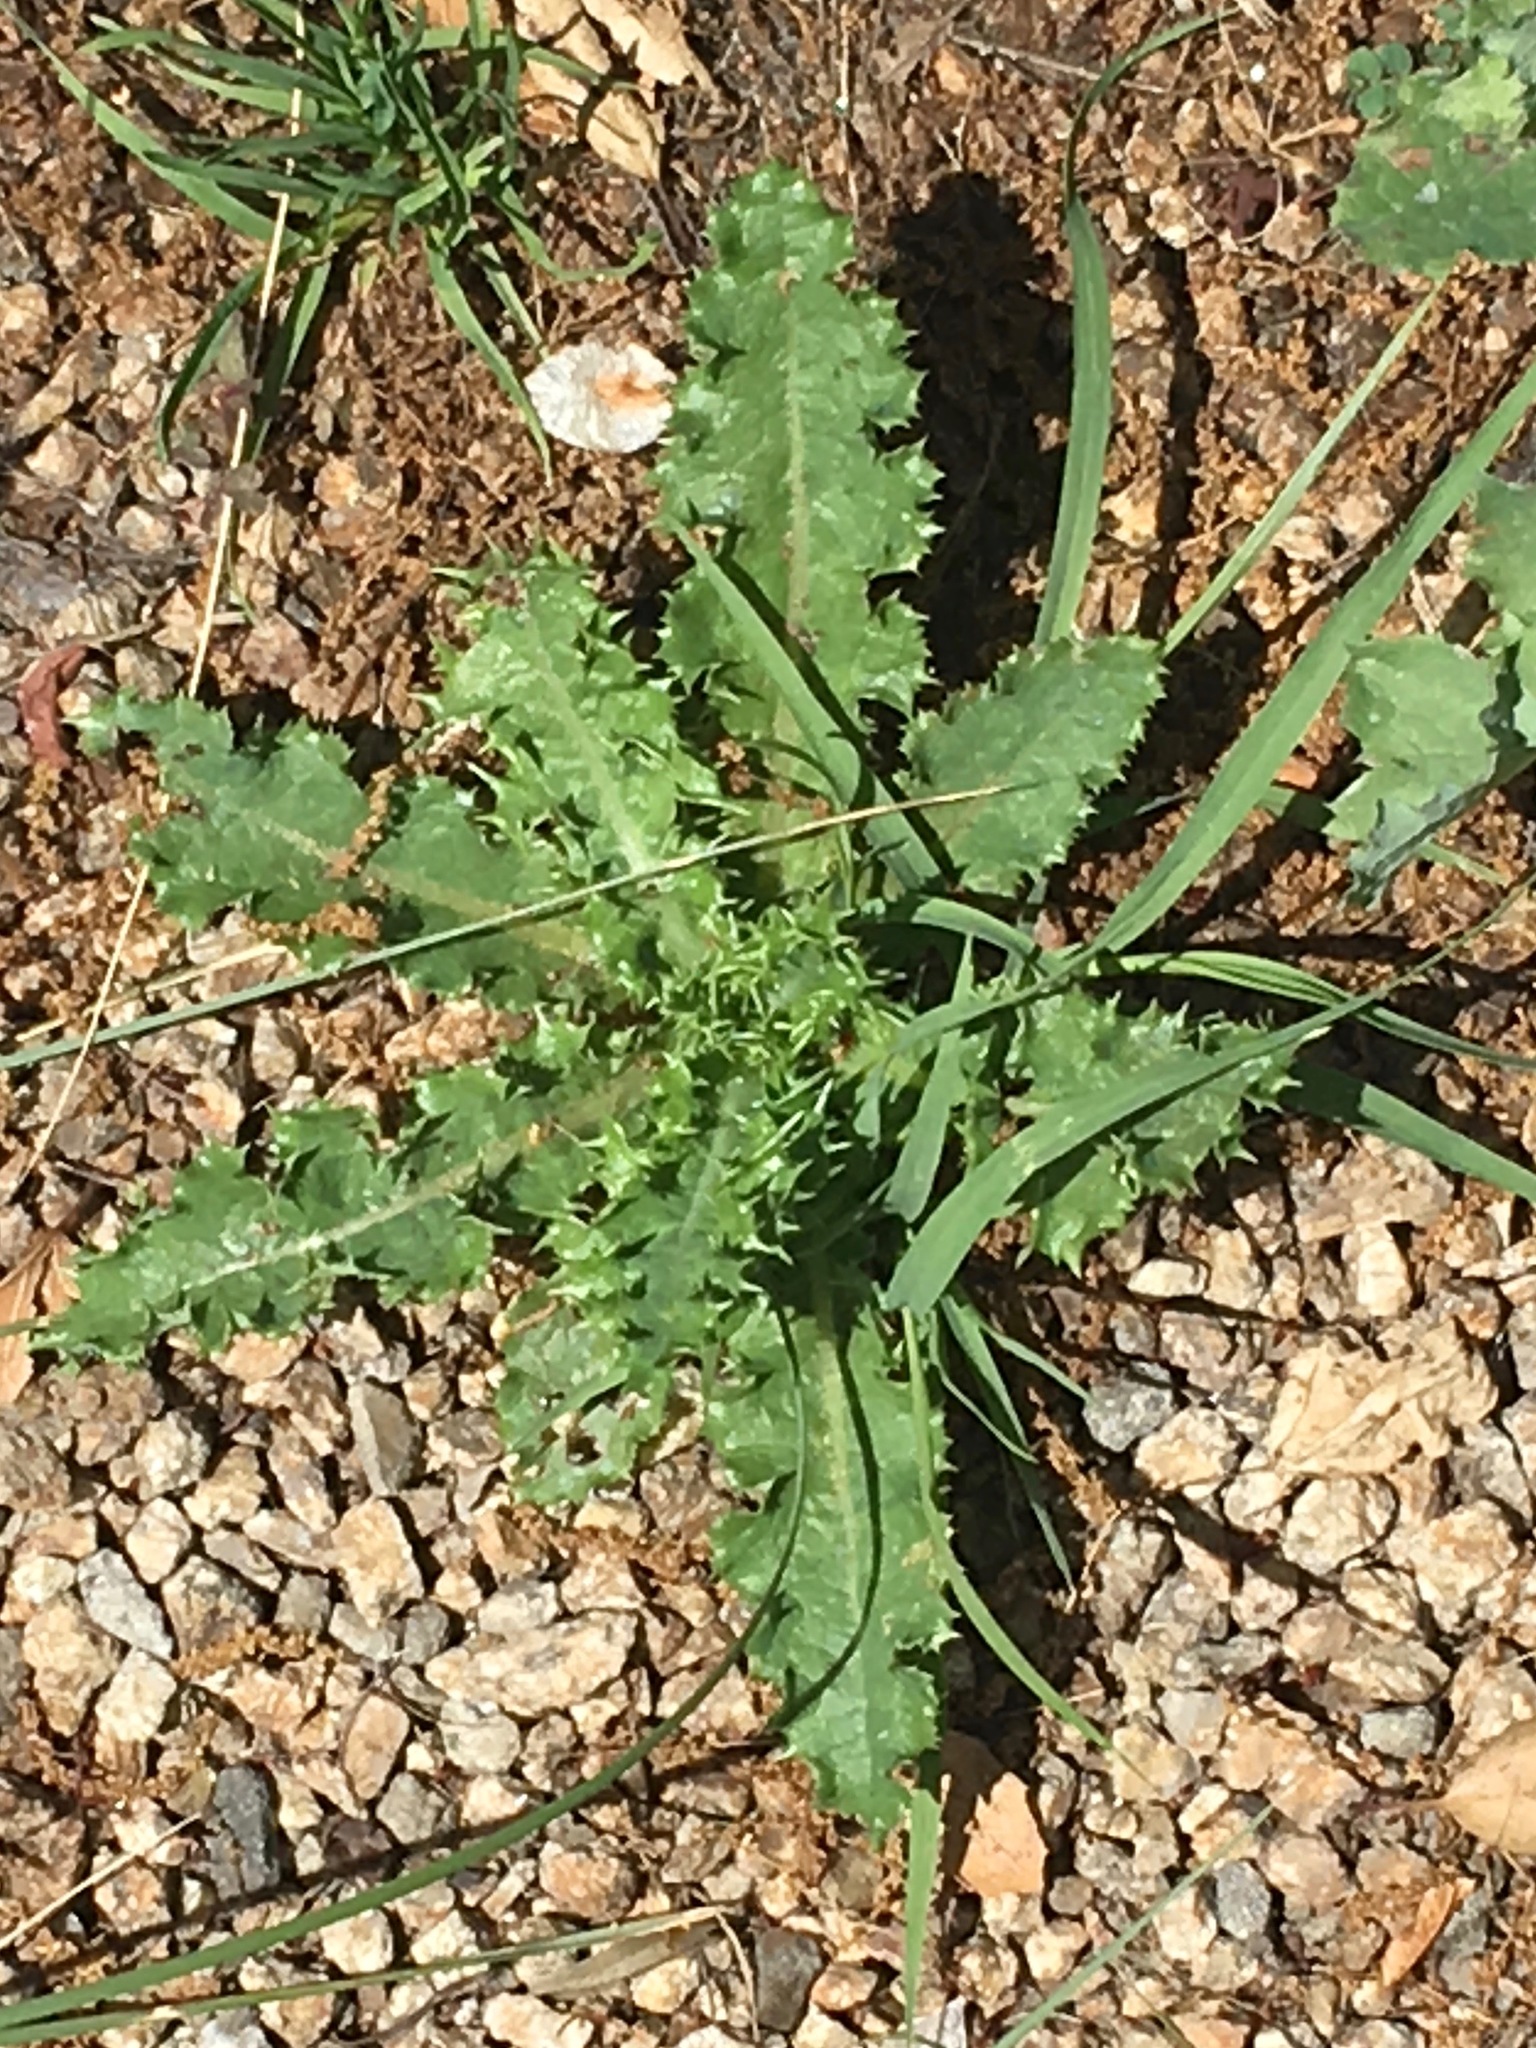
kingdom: Plantae
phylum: Tracheophyta
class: Magnoliopsida
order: Asterales
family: Asteraceae
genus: Sonchus
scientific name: Sonchus asper
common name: Prickly sow-thistle
